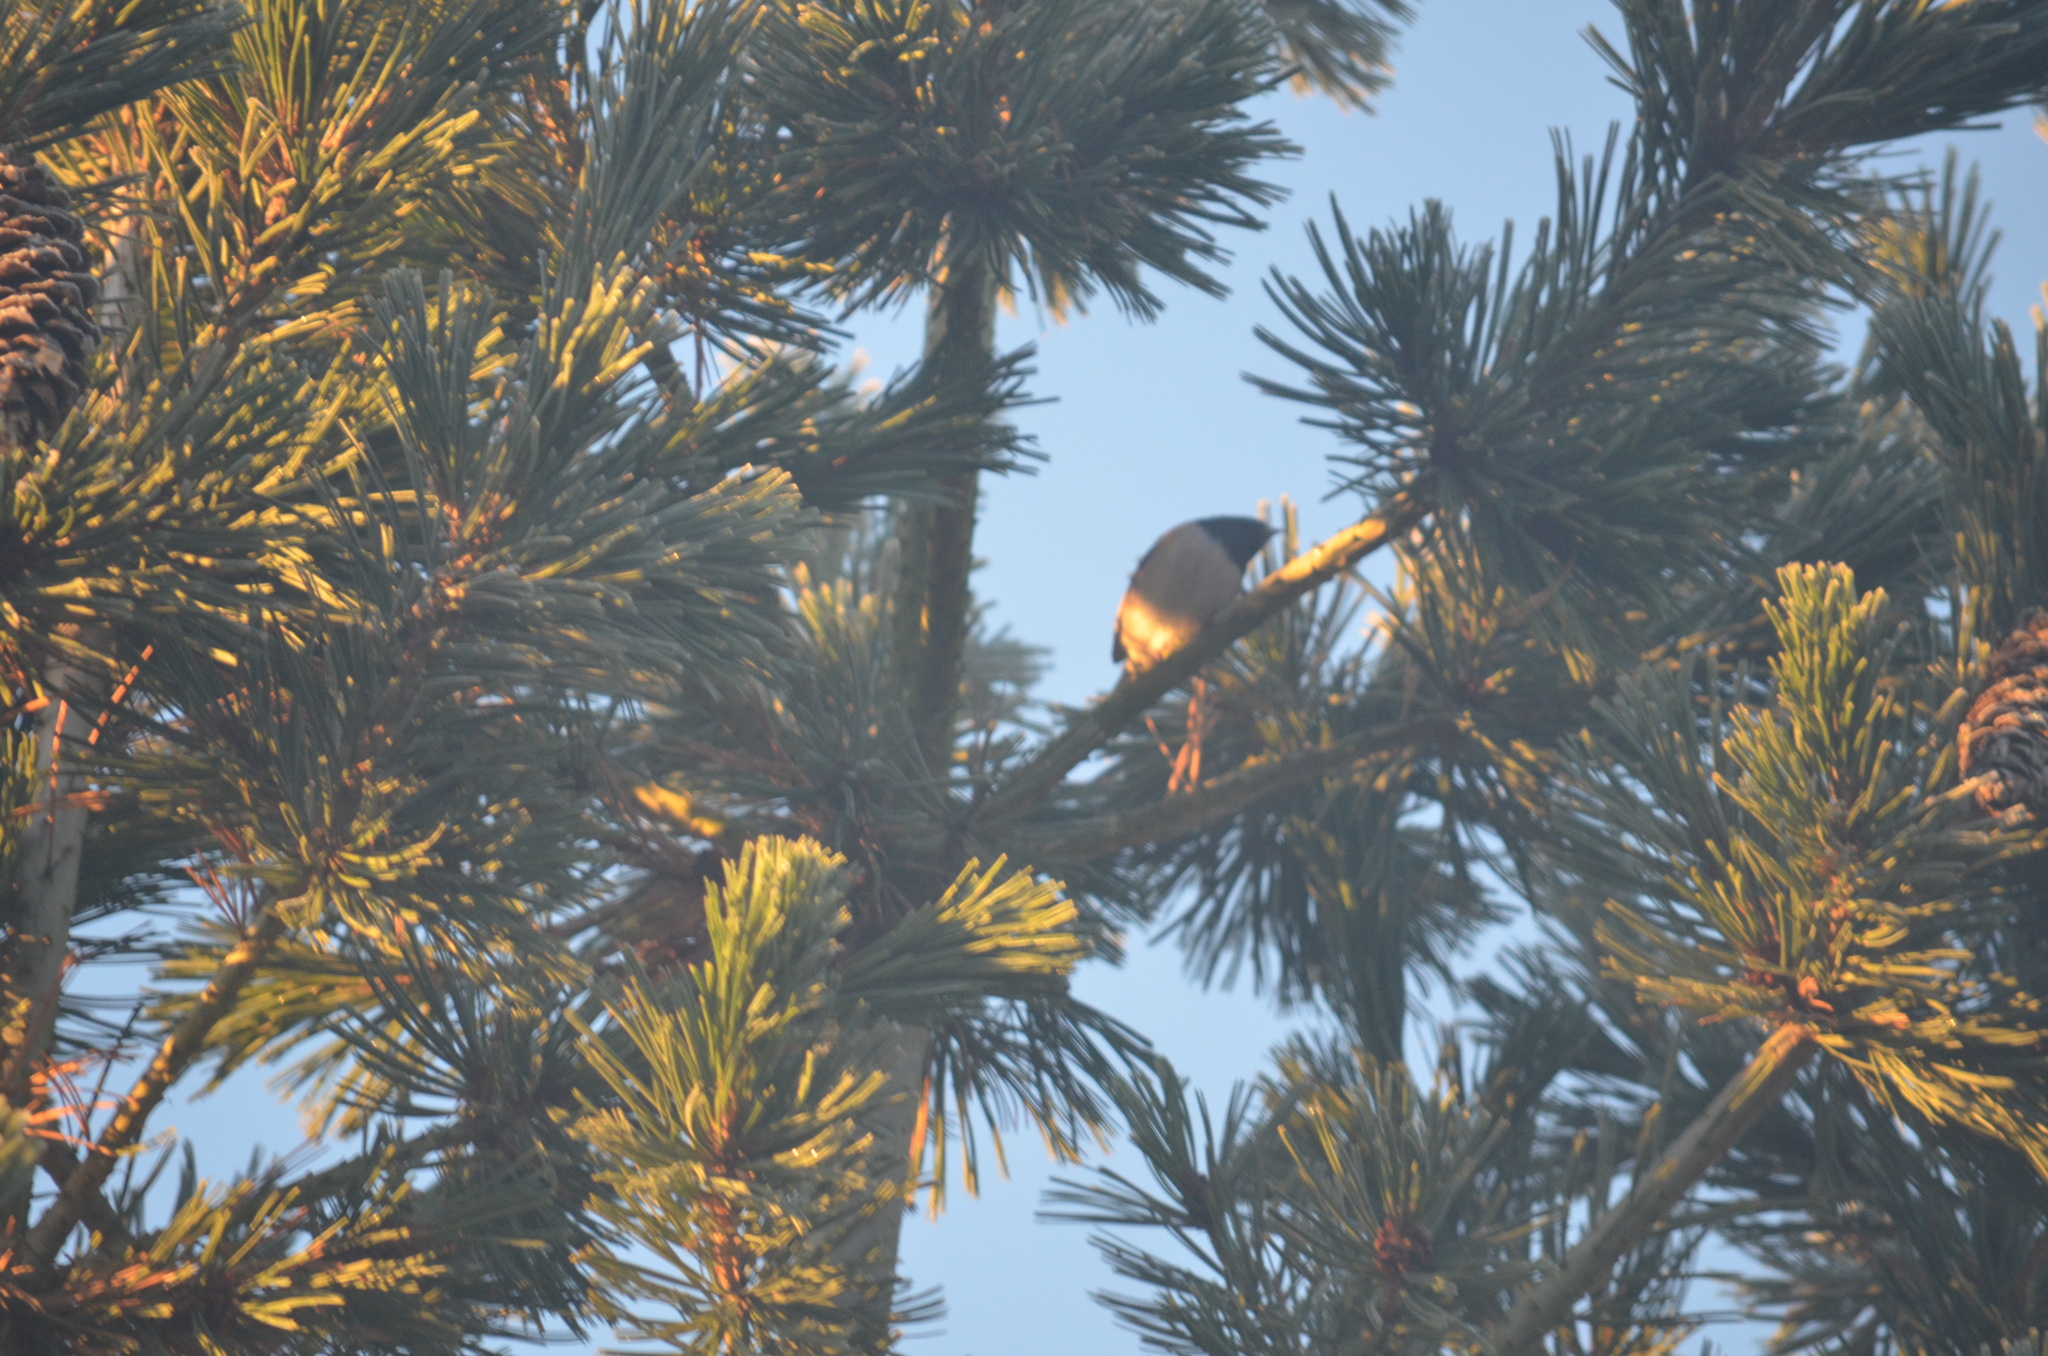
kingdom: Animalia
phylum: Chordata
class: Aves
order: Passeriformes
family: Passerellidae
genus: Junco
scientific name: Junco hyemalis
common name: Dark-eyed junco
